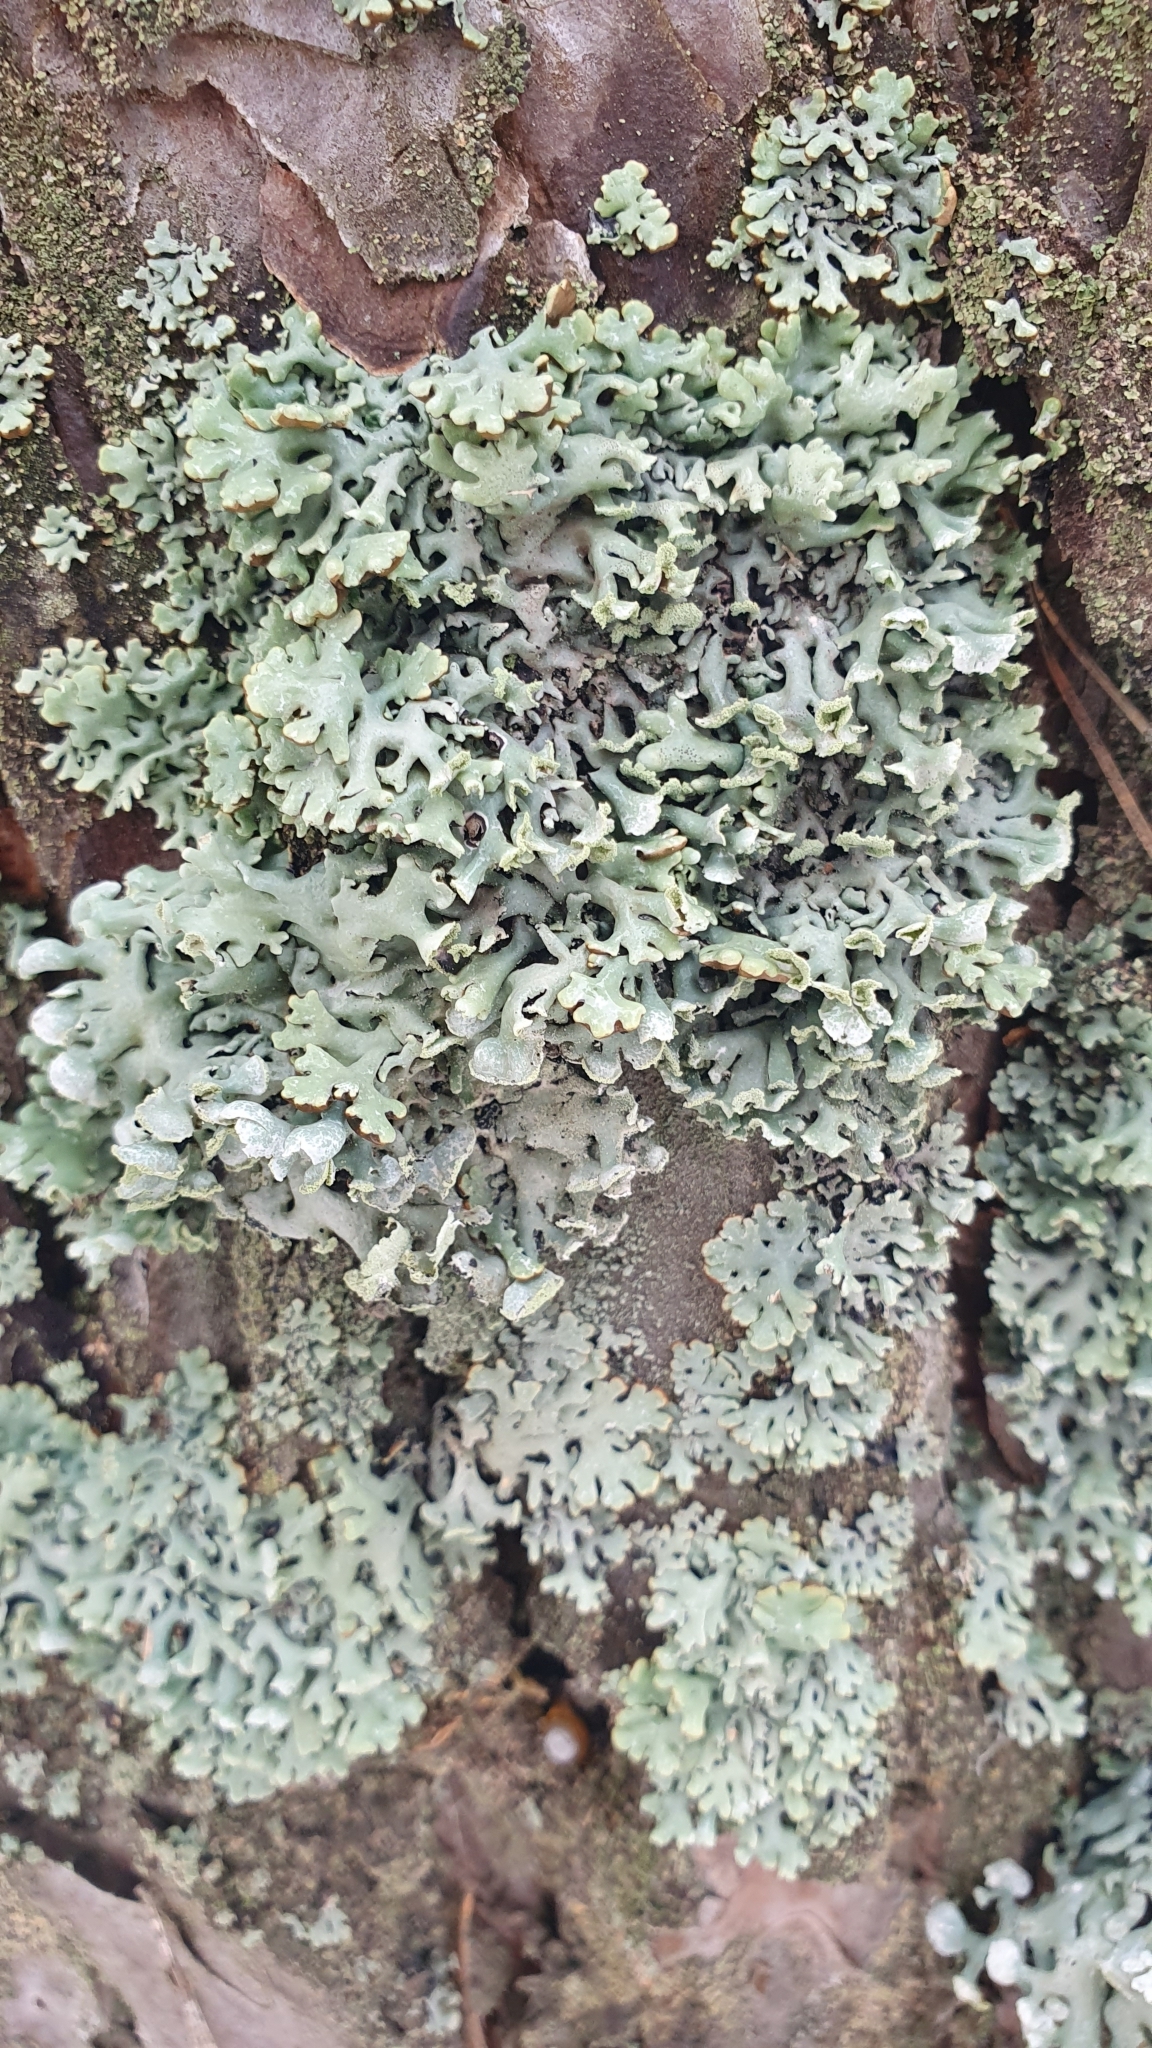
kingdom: Fungi
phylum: Ascomycota
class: Lecanoromycetes
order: Lecanorales
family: Parmeliaceae
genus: Hypogymnia
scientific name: Hypogymnia physodes
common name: Dark crottle
